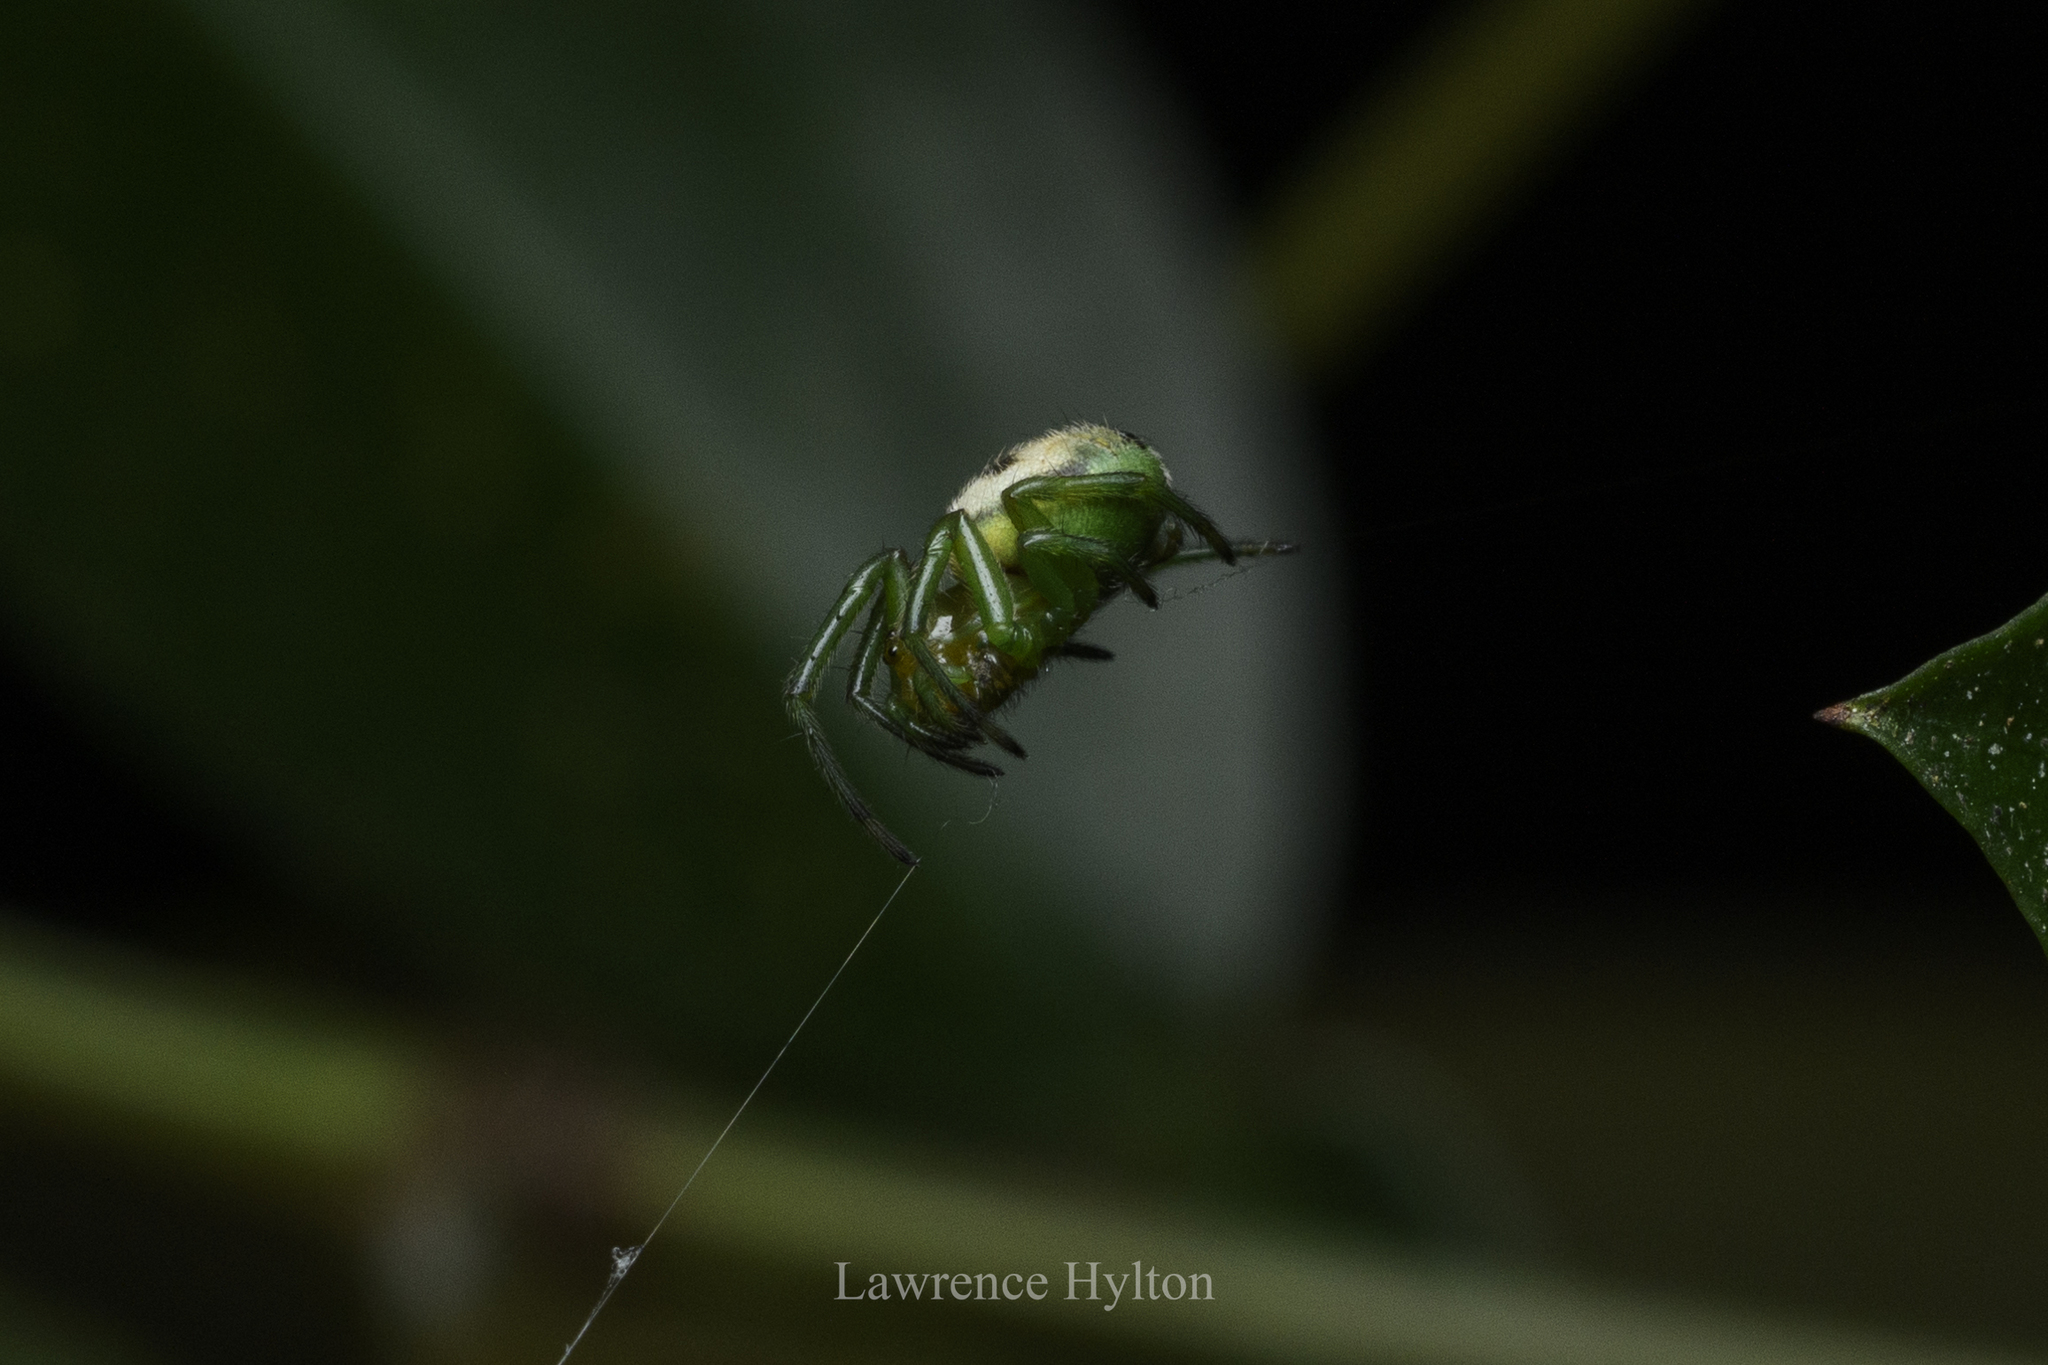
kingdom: Animalia
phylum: Arthropoda
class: Arachnida
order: Araneae
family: Araneidae
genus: Bijoaraneus
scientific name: Bijoaraneus mitificus
